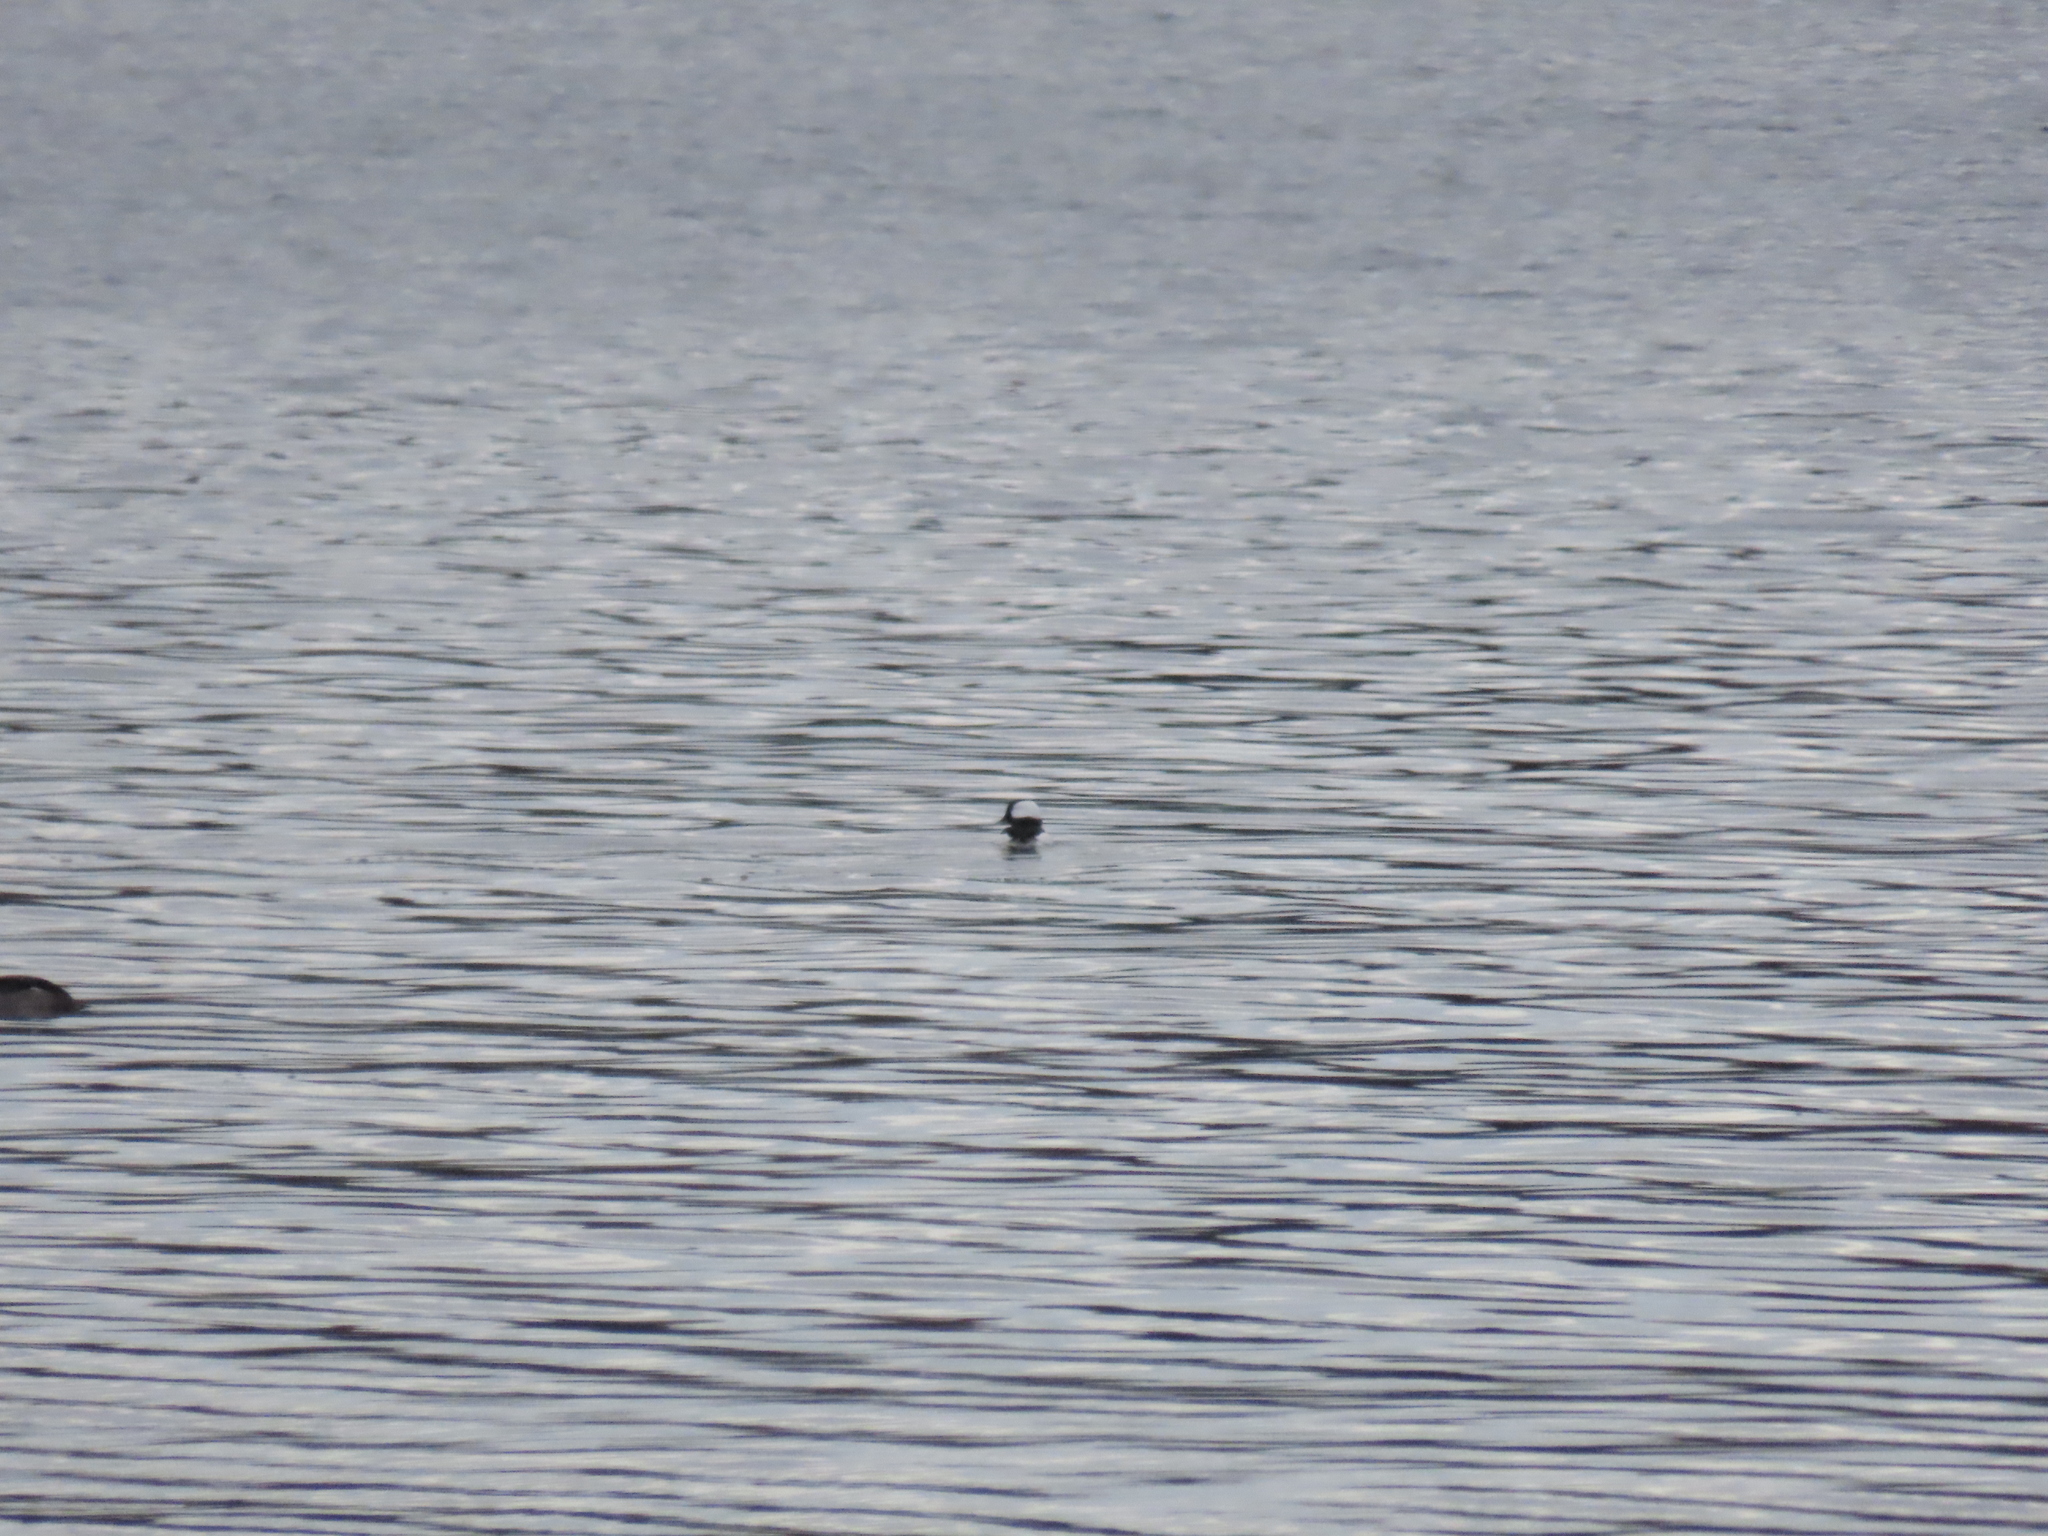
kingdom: Animalia
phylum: Chordata
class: Aves
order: Anseriformes
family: Anatidae
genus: Bucephala
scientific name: Bucephala albeola
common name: Bufflehead
